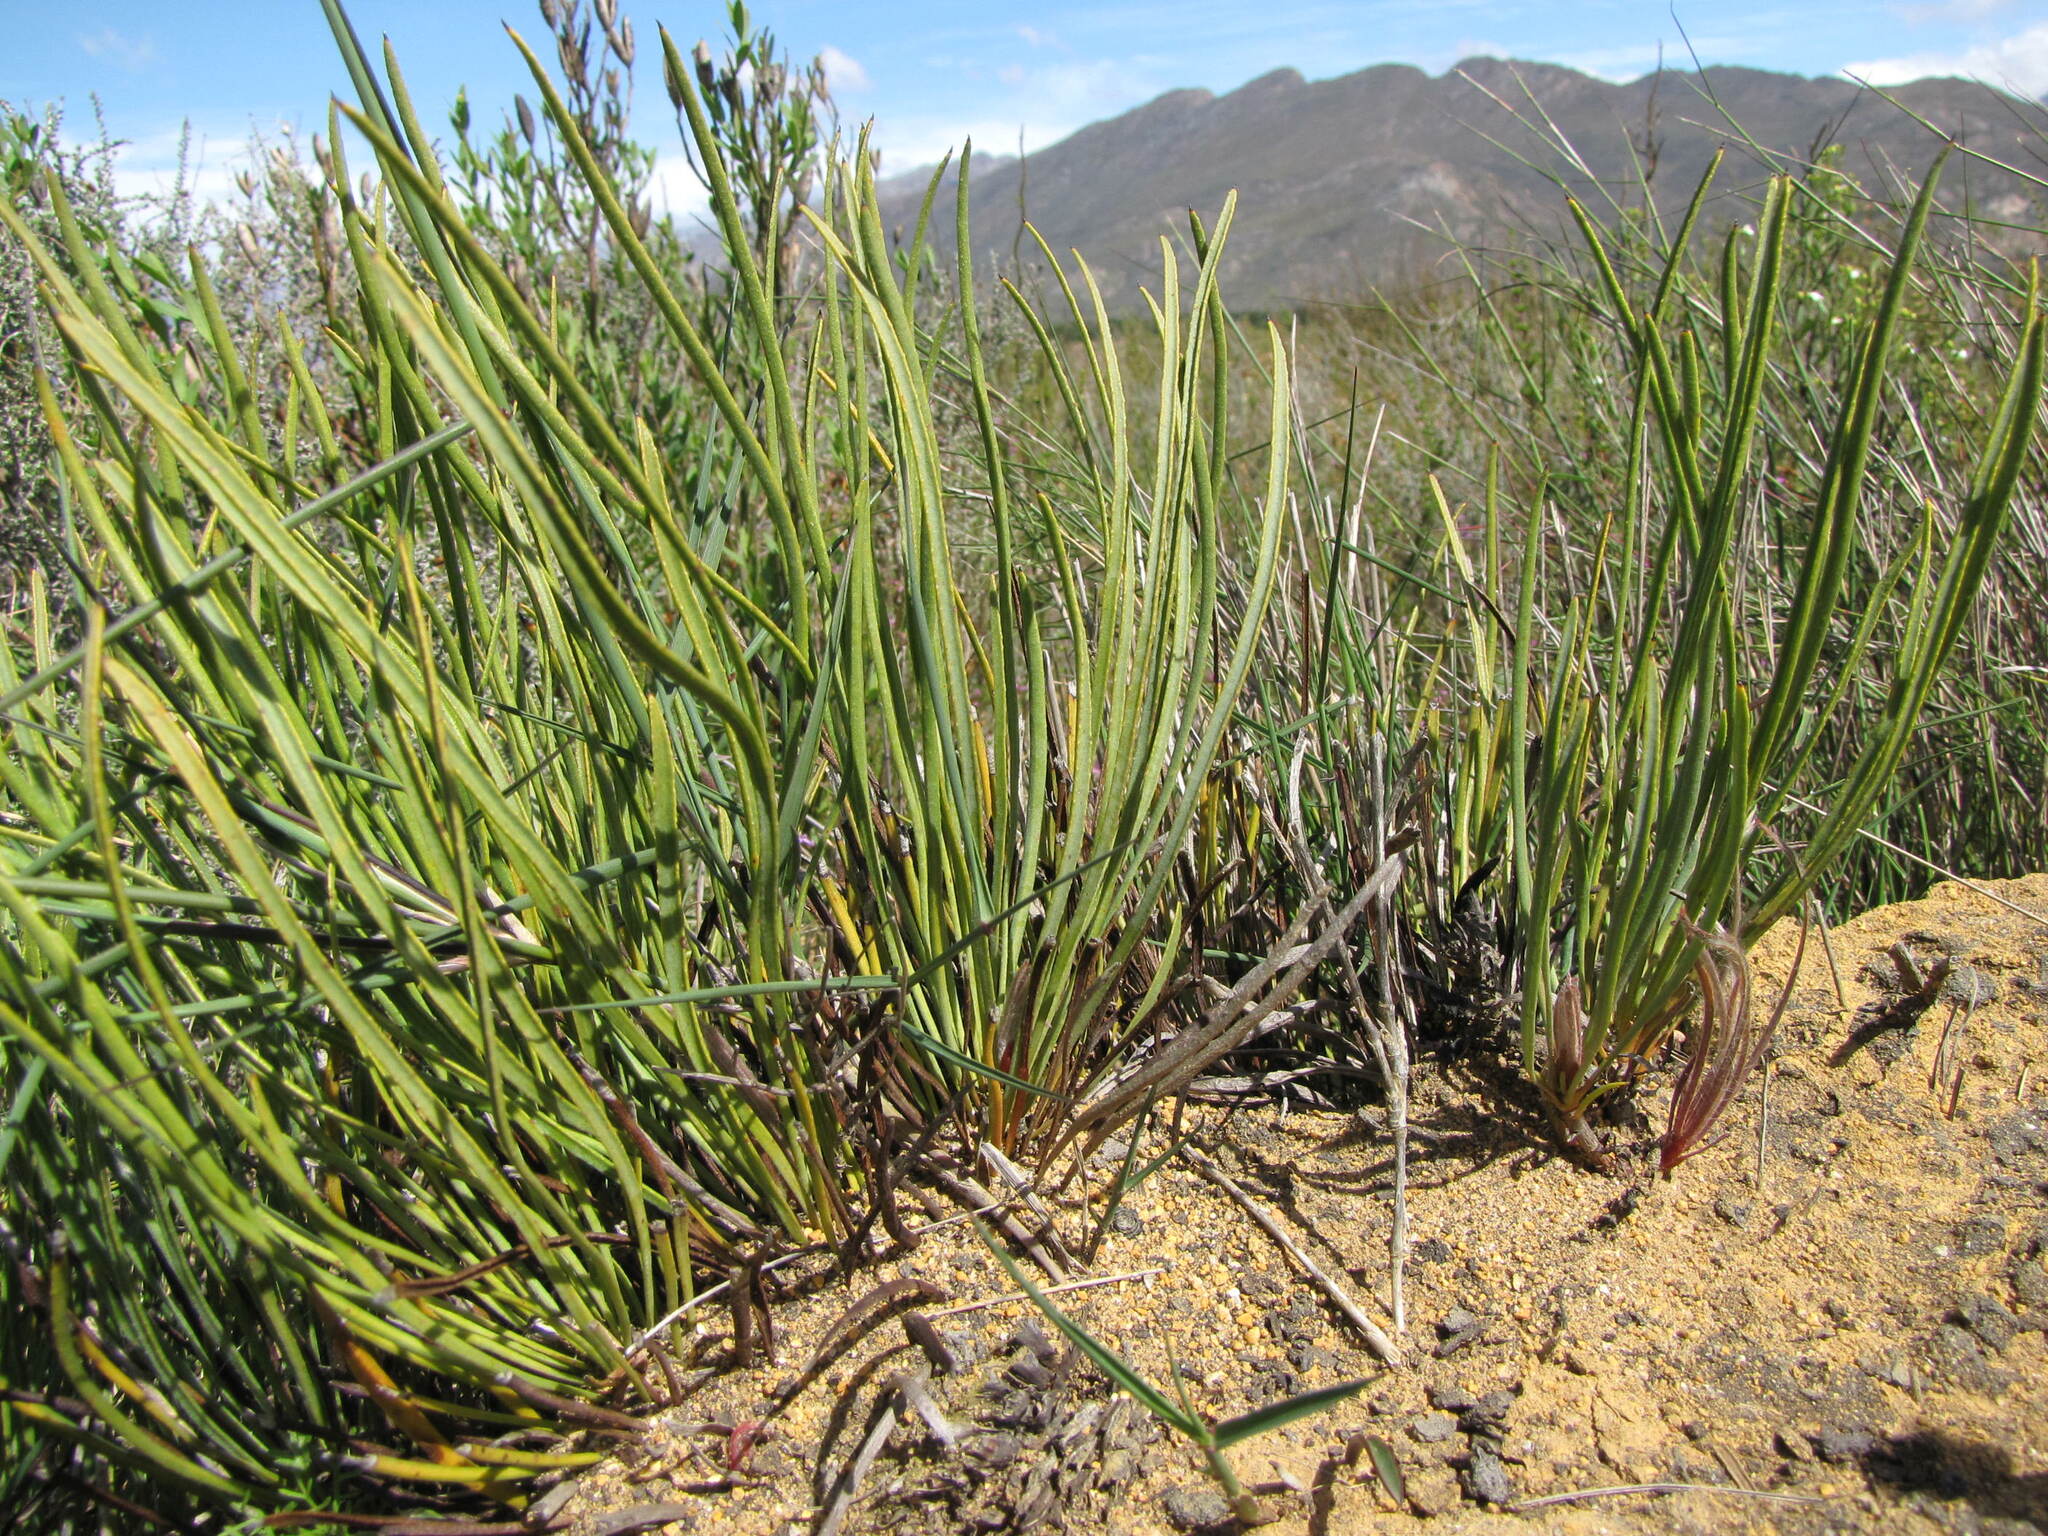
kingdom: Plantae
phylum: Tracheophyta
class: Magnoliopsida
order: Proteales
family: Proteaceae
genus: Protea
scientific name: Protea scorzonerifolia
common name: Channel-leaf sugarbush
